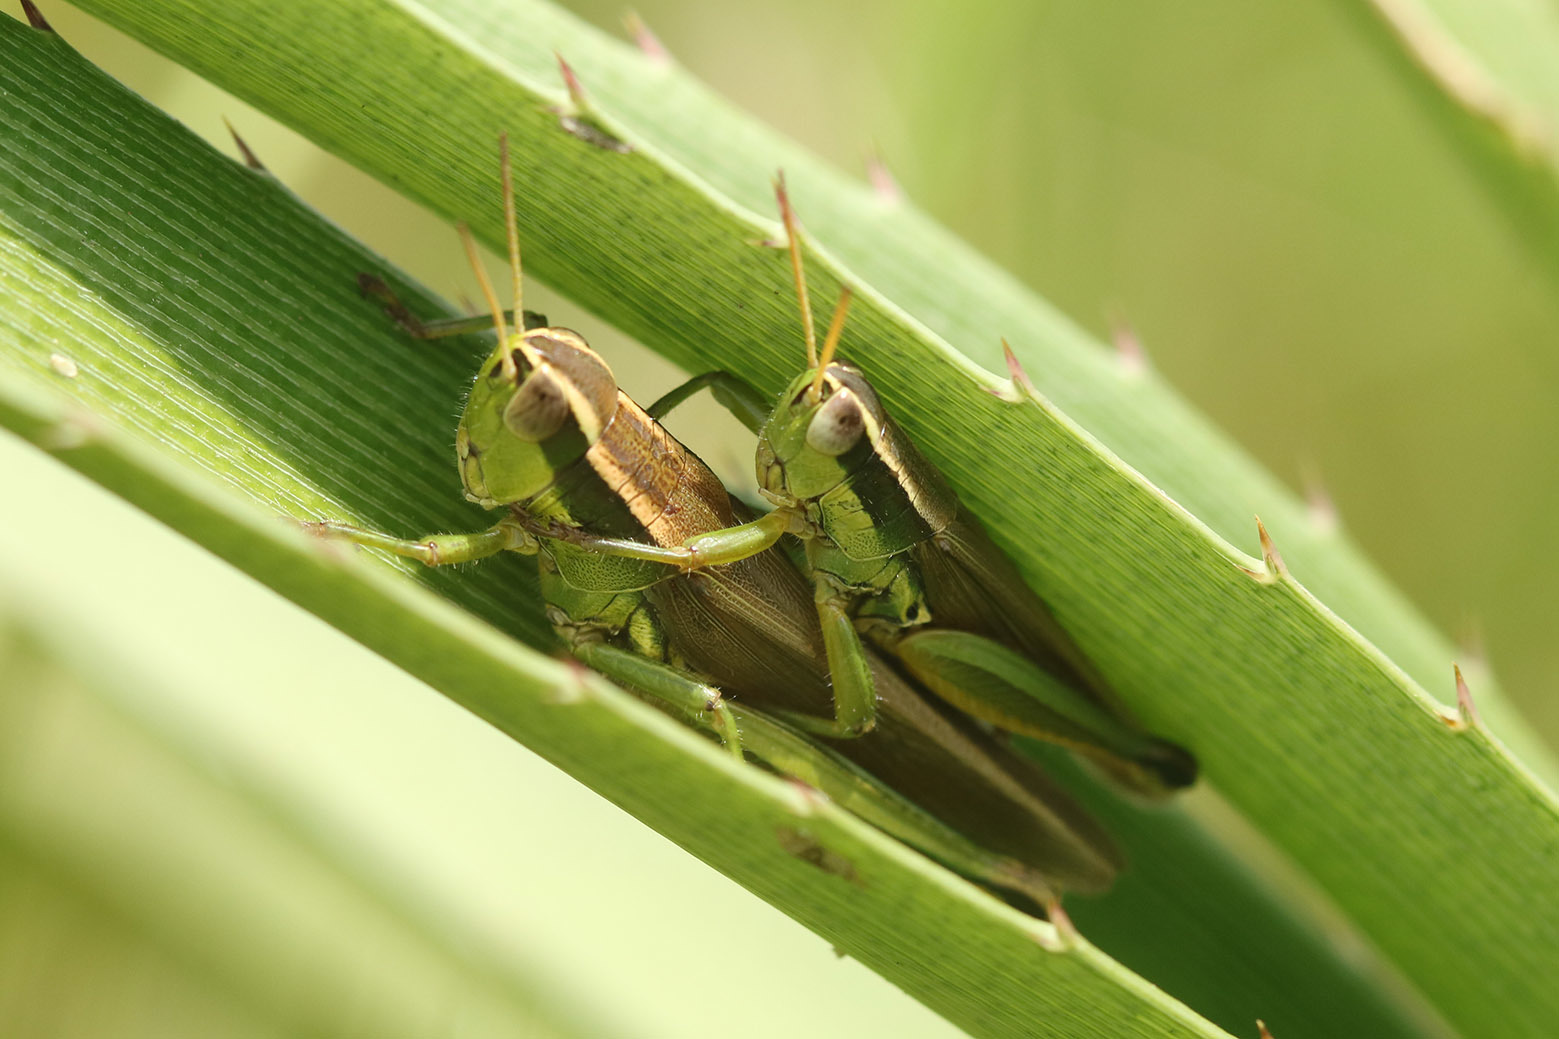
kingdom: Animalia
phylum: Arthropoda
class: Insecta
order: Orthoptera
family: Acrididae
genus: Scotussa
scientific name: Scotussa cliens
